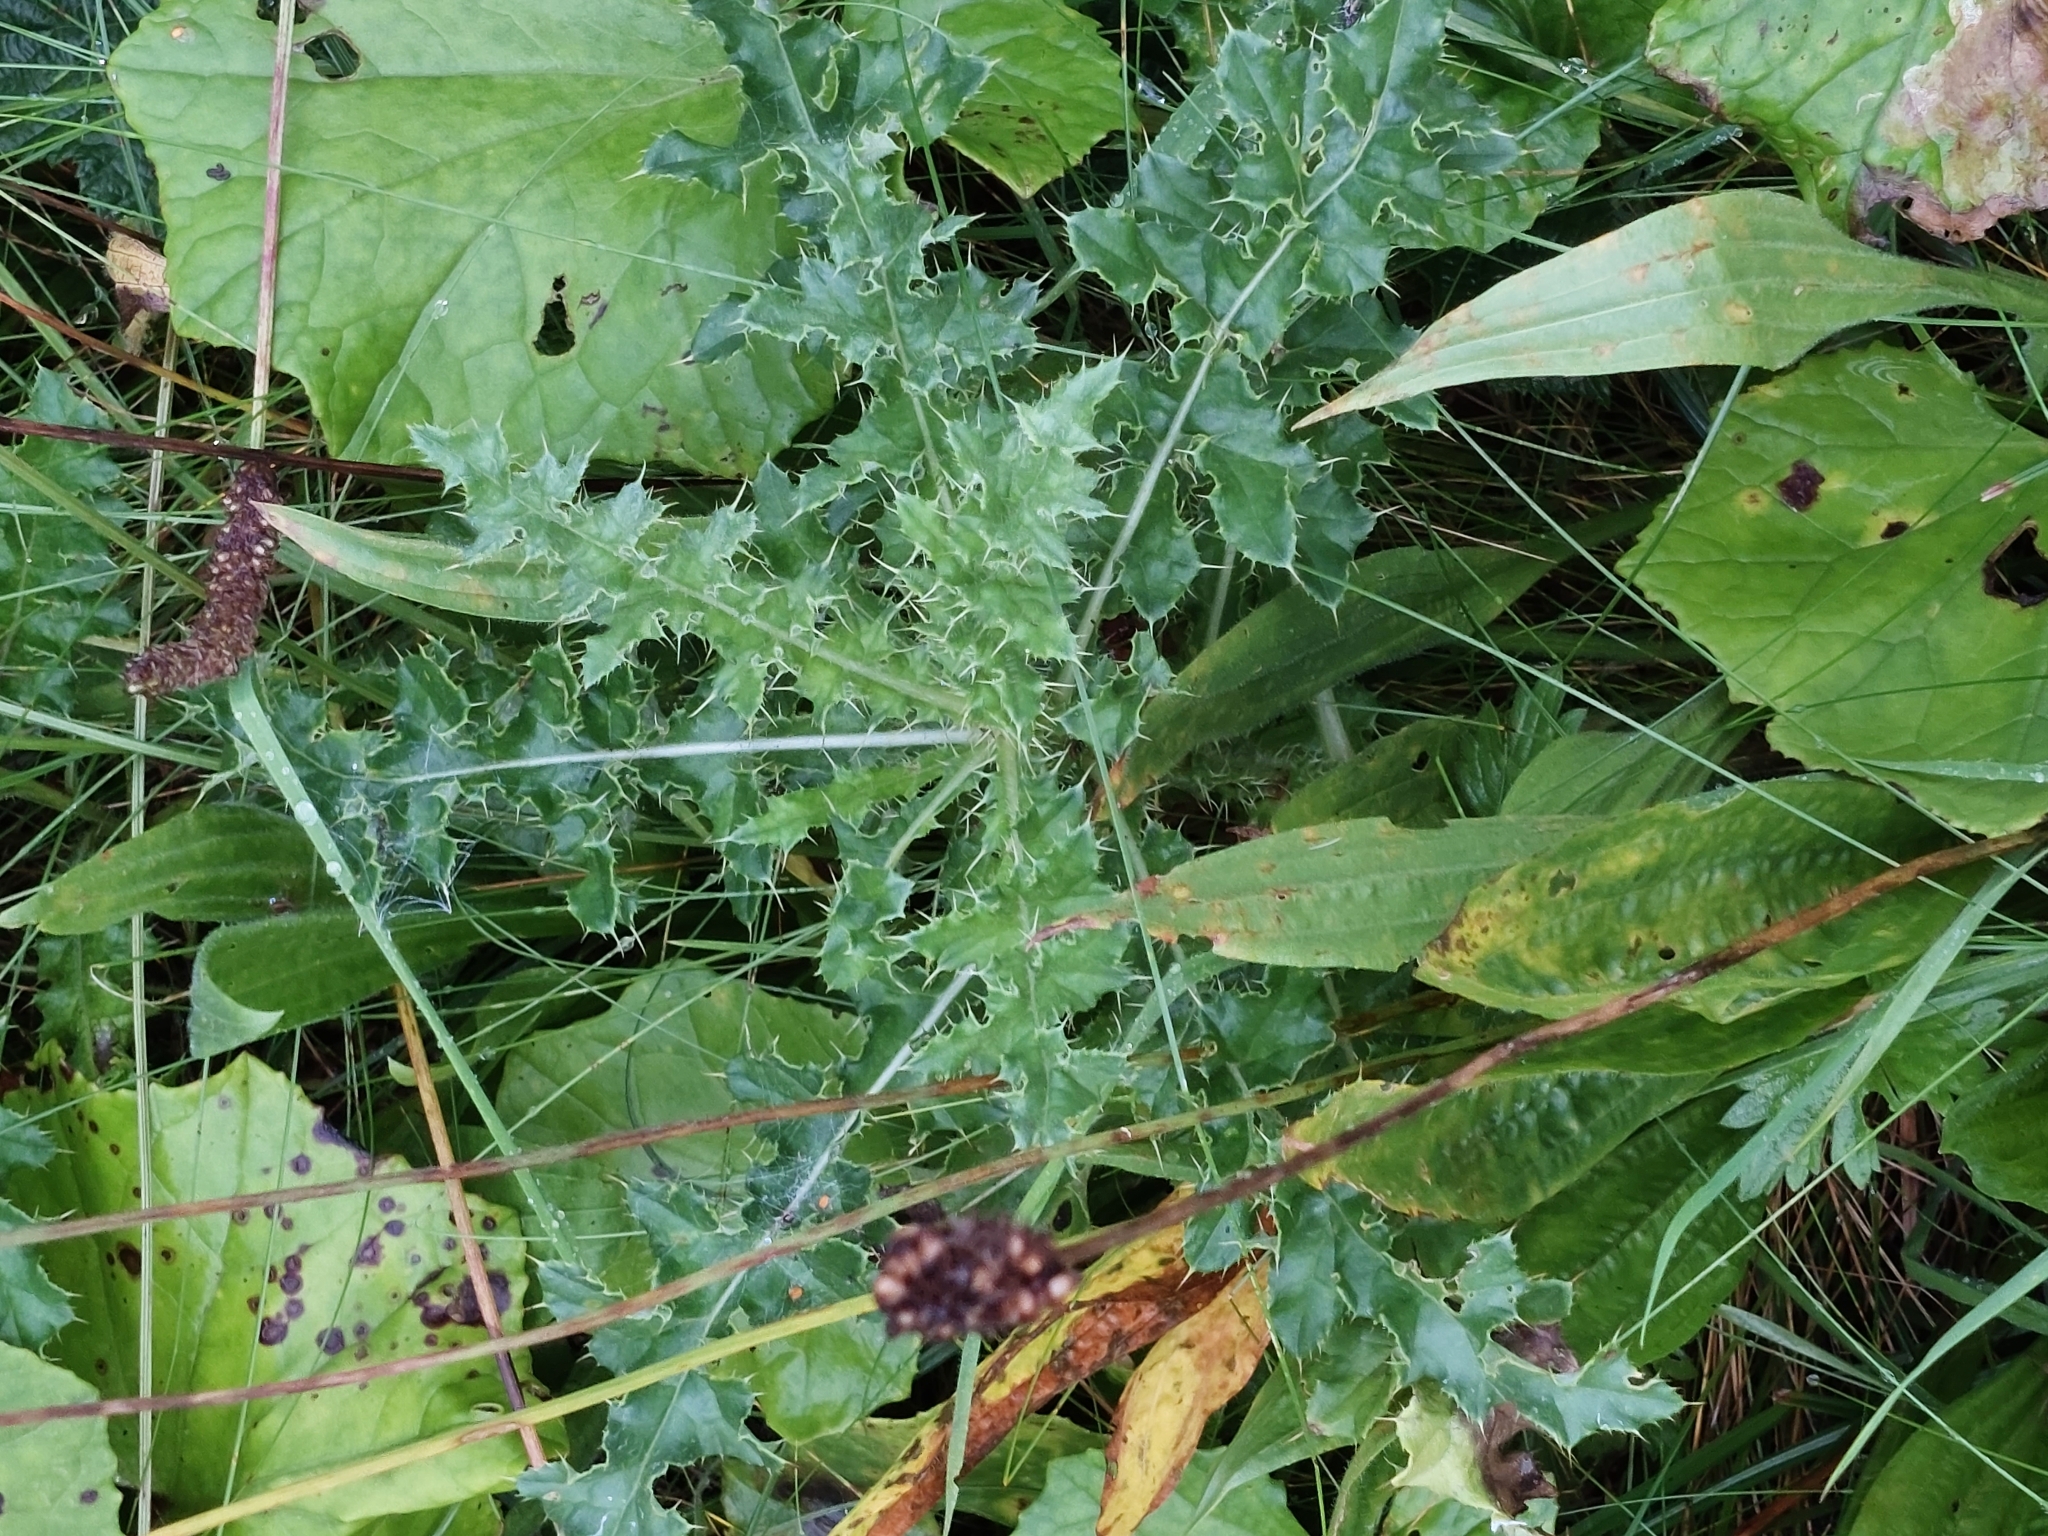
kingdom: Plantae
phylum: Tracheophyta
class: Magnoliopsida
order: Asterales
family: Asteraceae
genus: Cirsium
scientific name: Cirsium arvense
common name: Creeping thistle
